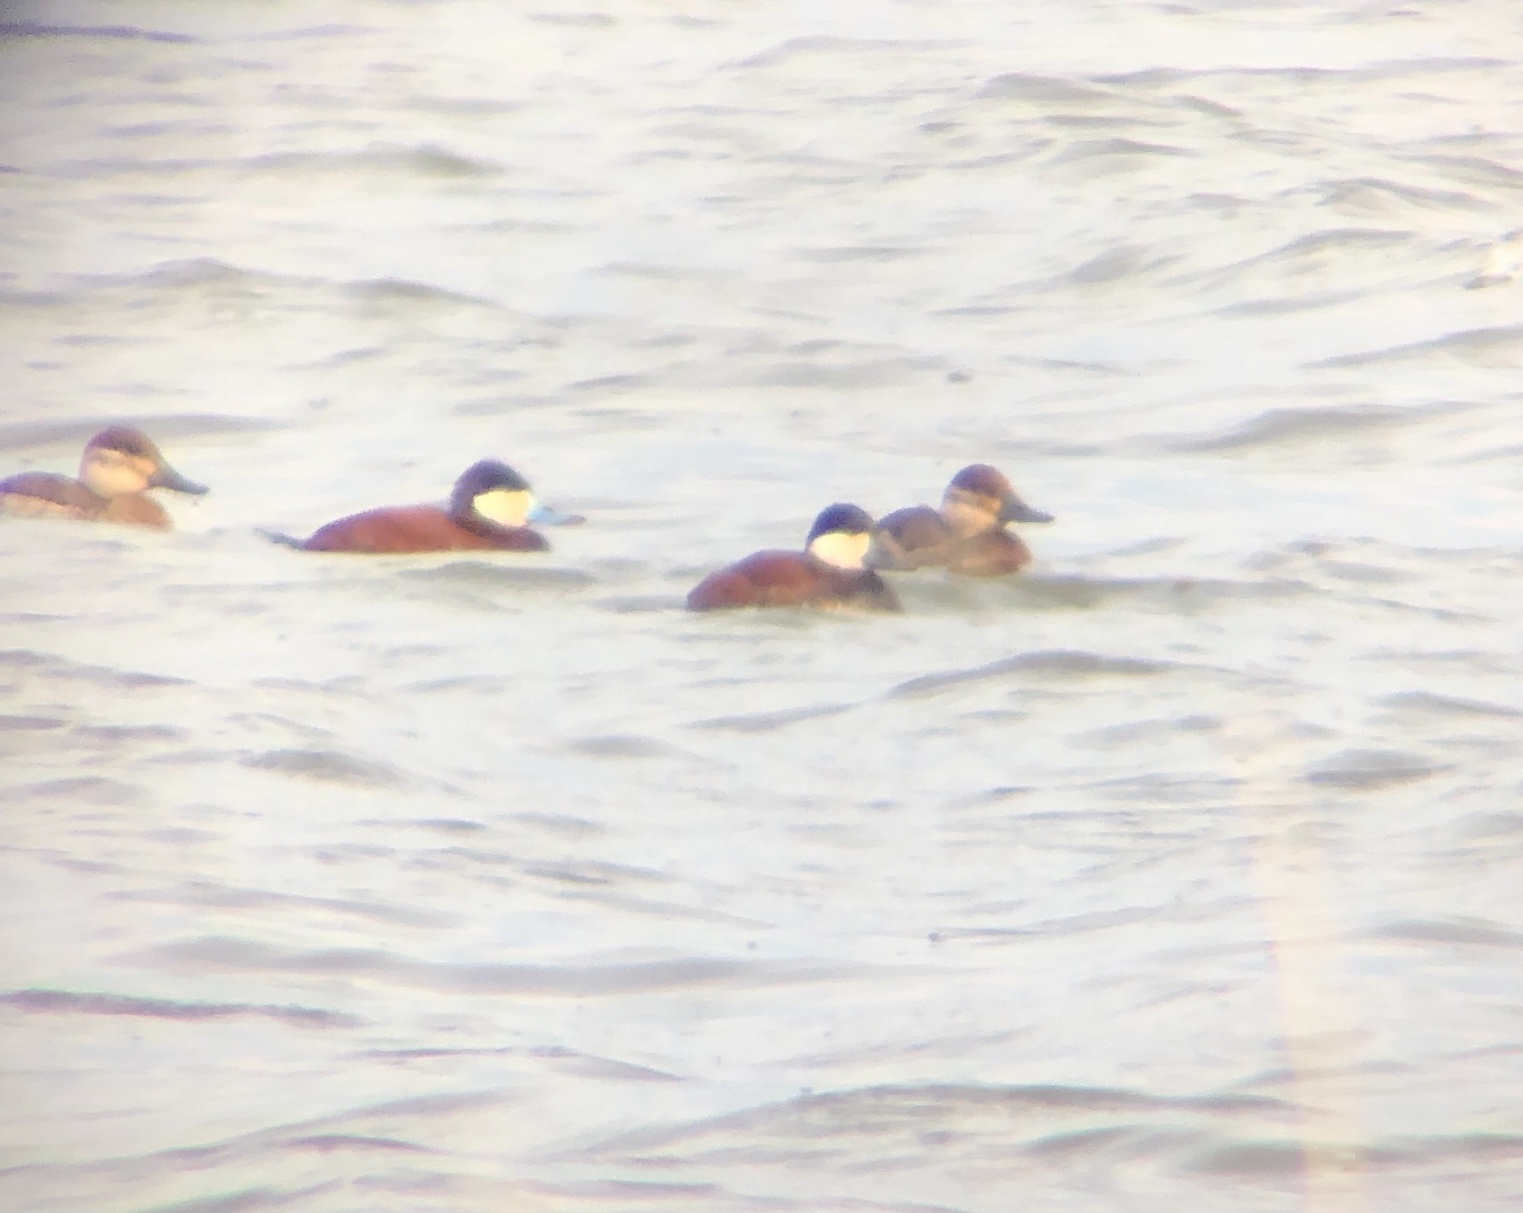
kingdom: Animalia
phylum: Chordata
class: Aves
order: Anseriformes
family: Anatidae
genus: Oxyura
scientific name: Oxyura jamaicensis
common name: Ruddy duck
